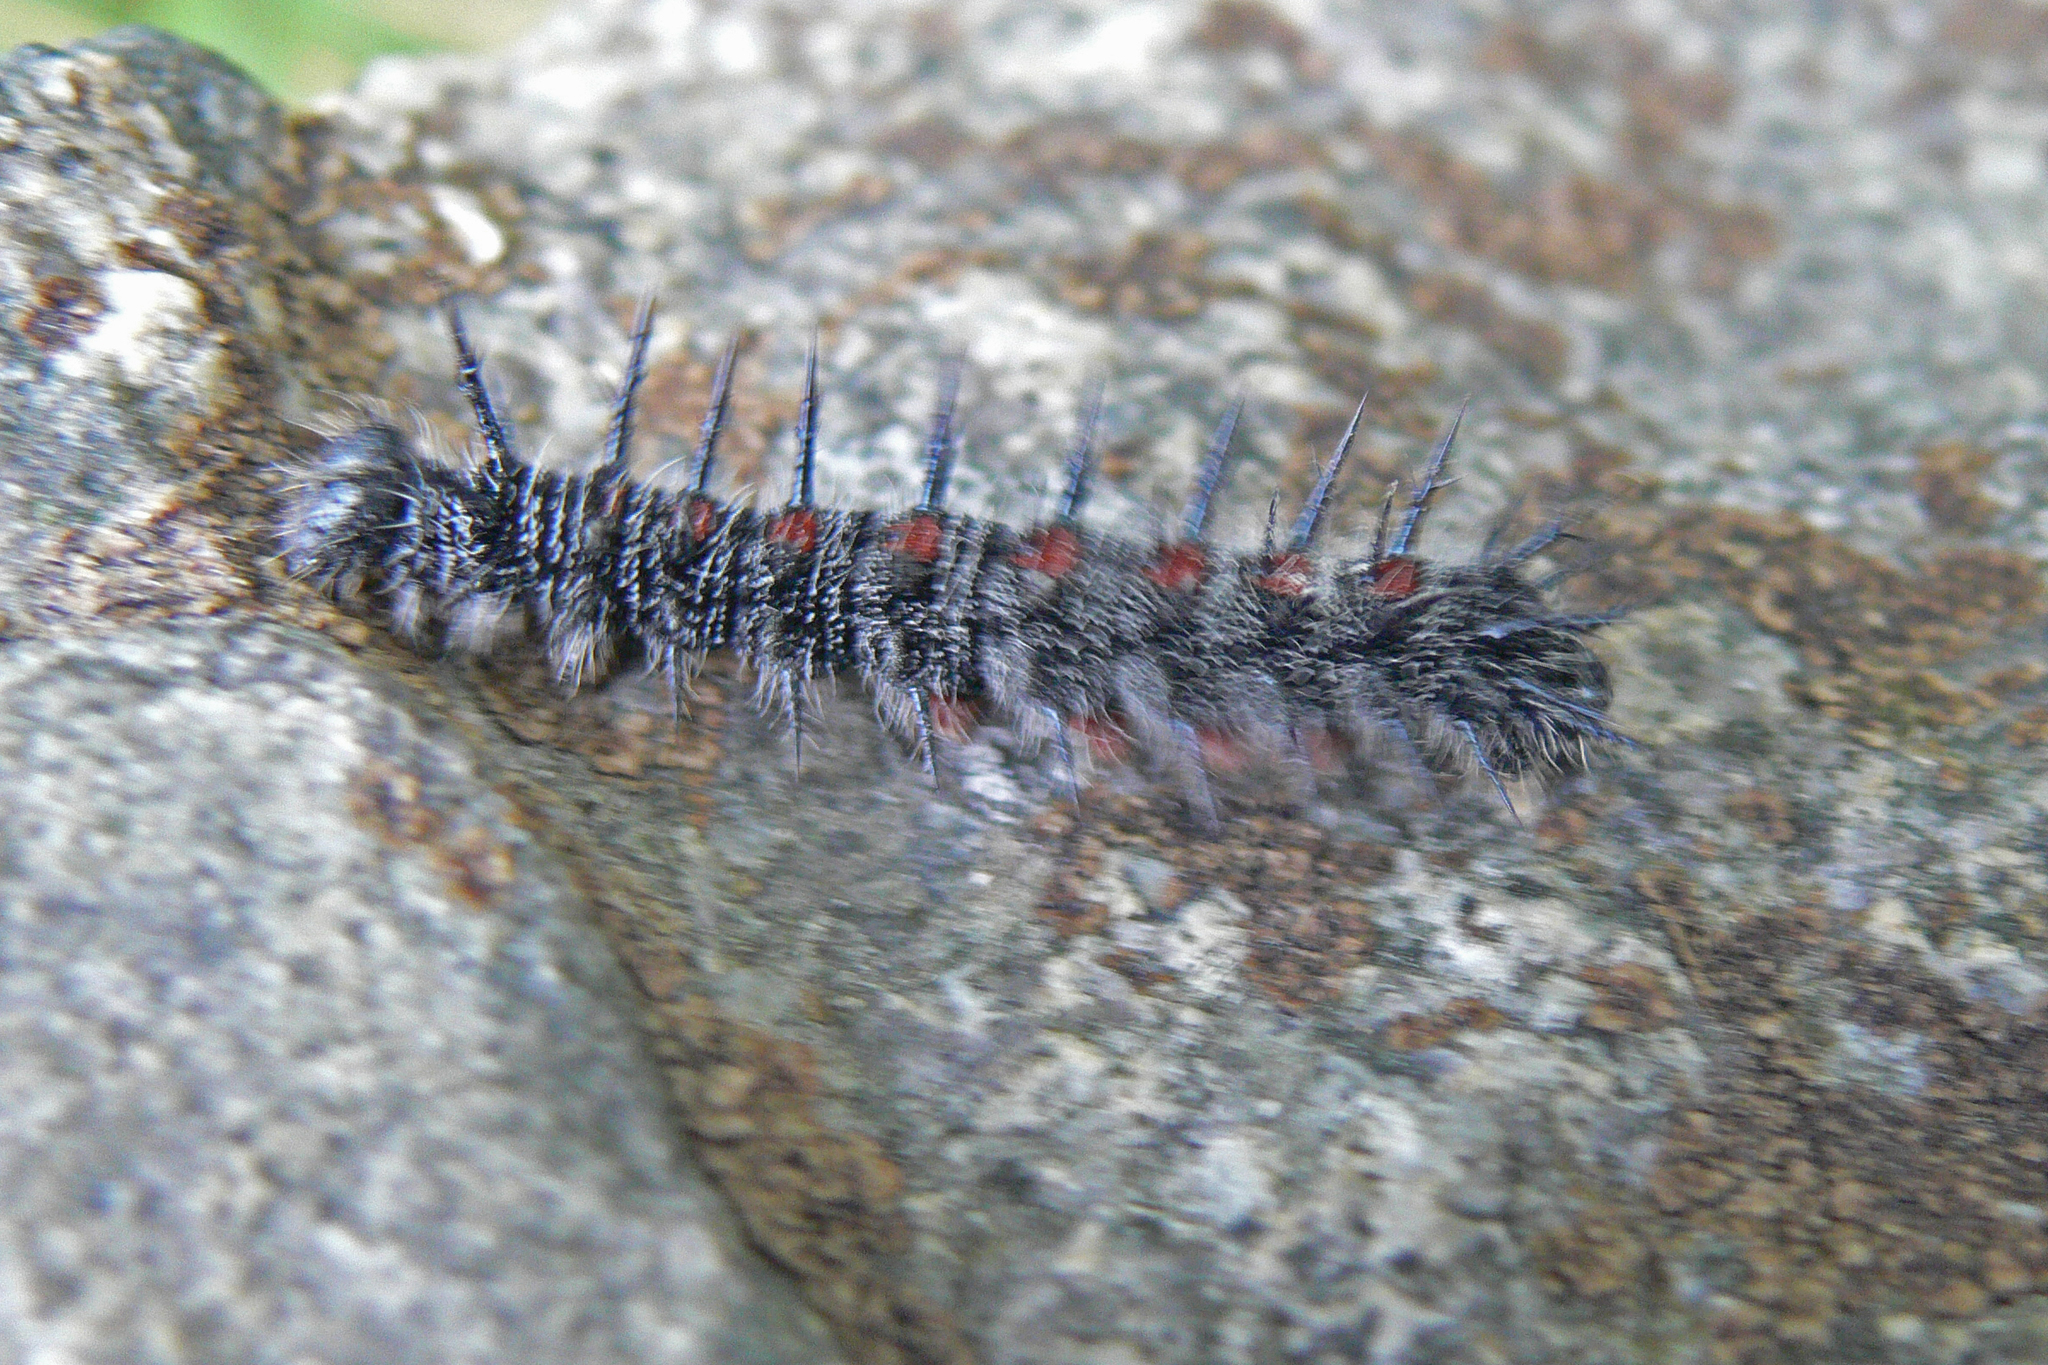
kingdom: Animalia
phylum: Arthropoda
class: Insecta
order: Lepidoptera
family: Nymphalidae
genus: Nymphalis
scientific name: Nymphalis antiopa
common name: Camberwell beauty
